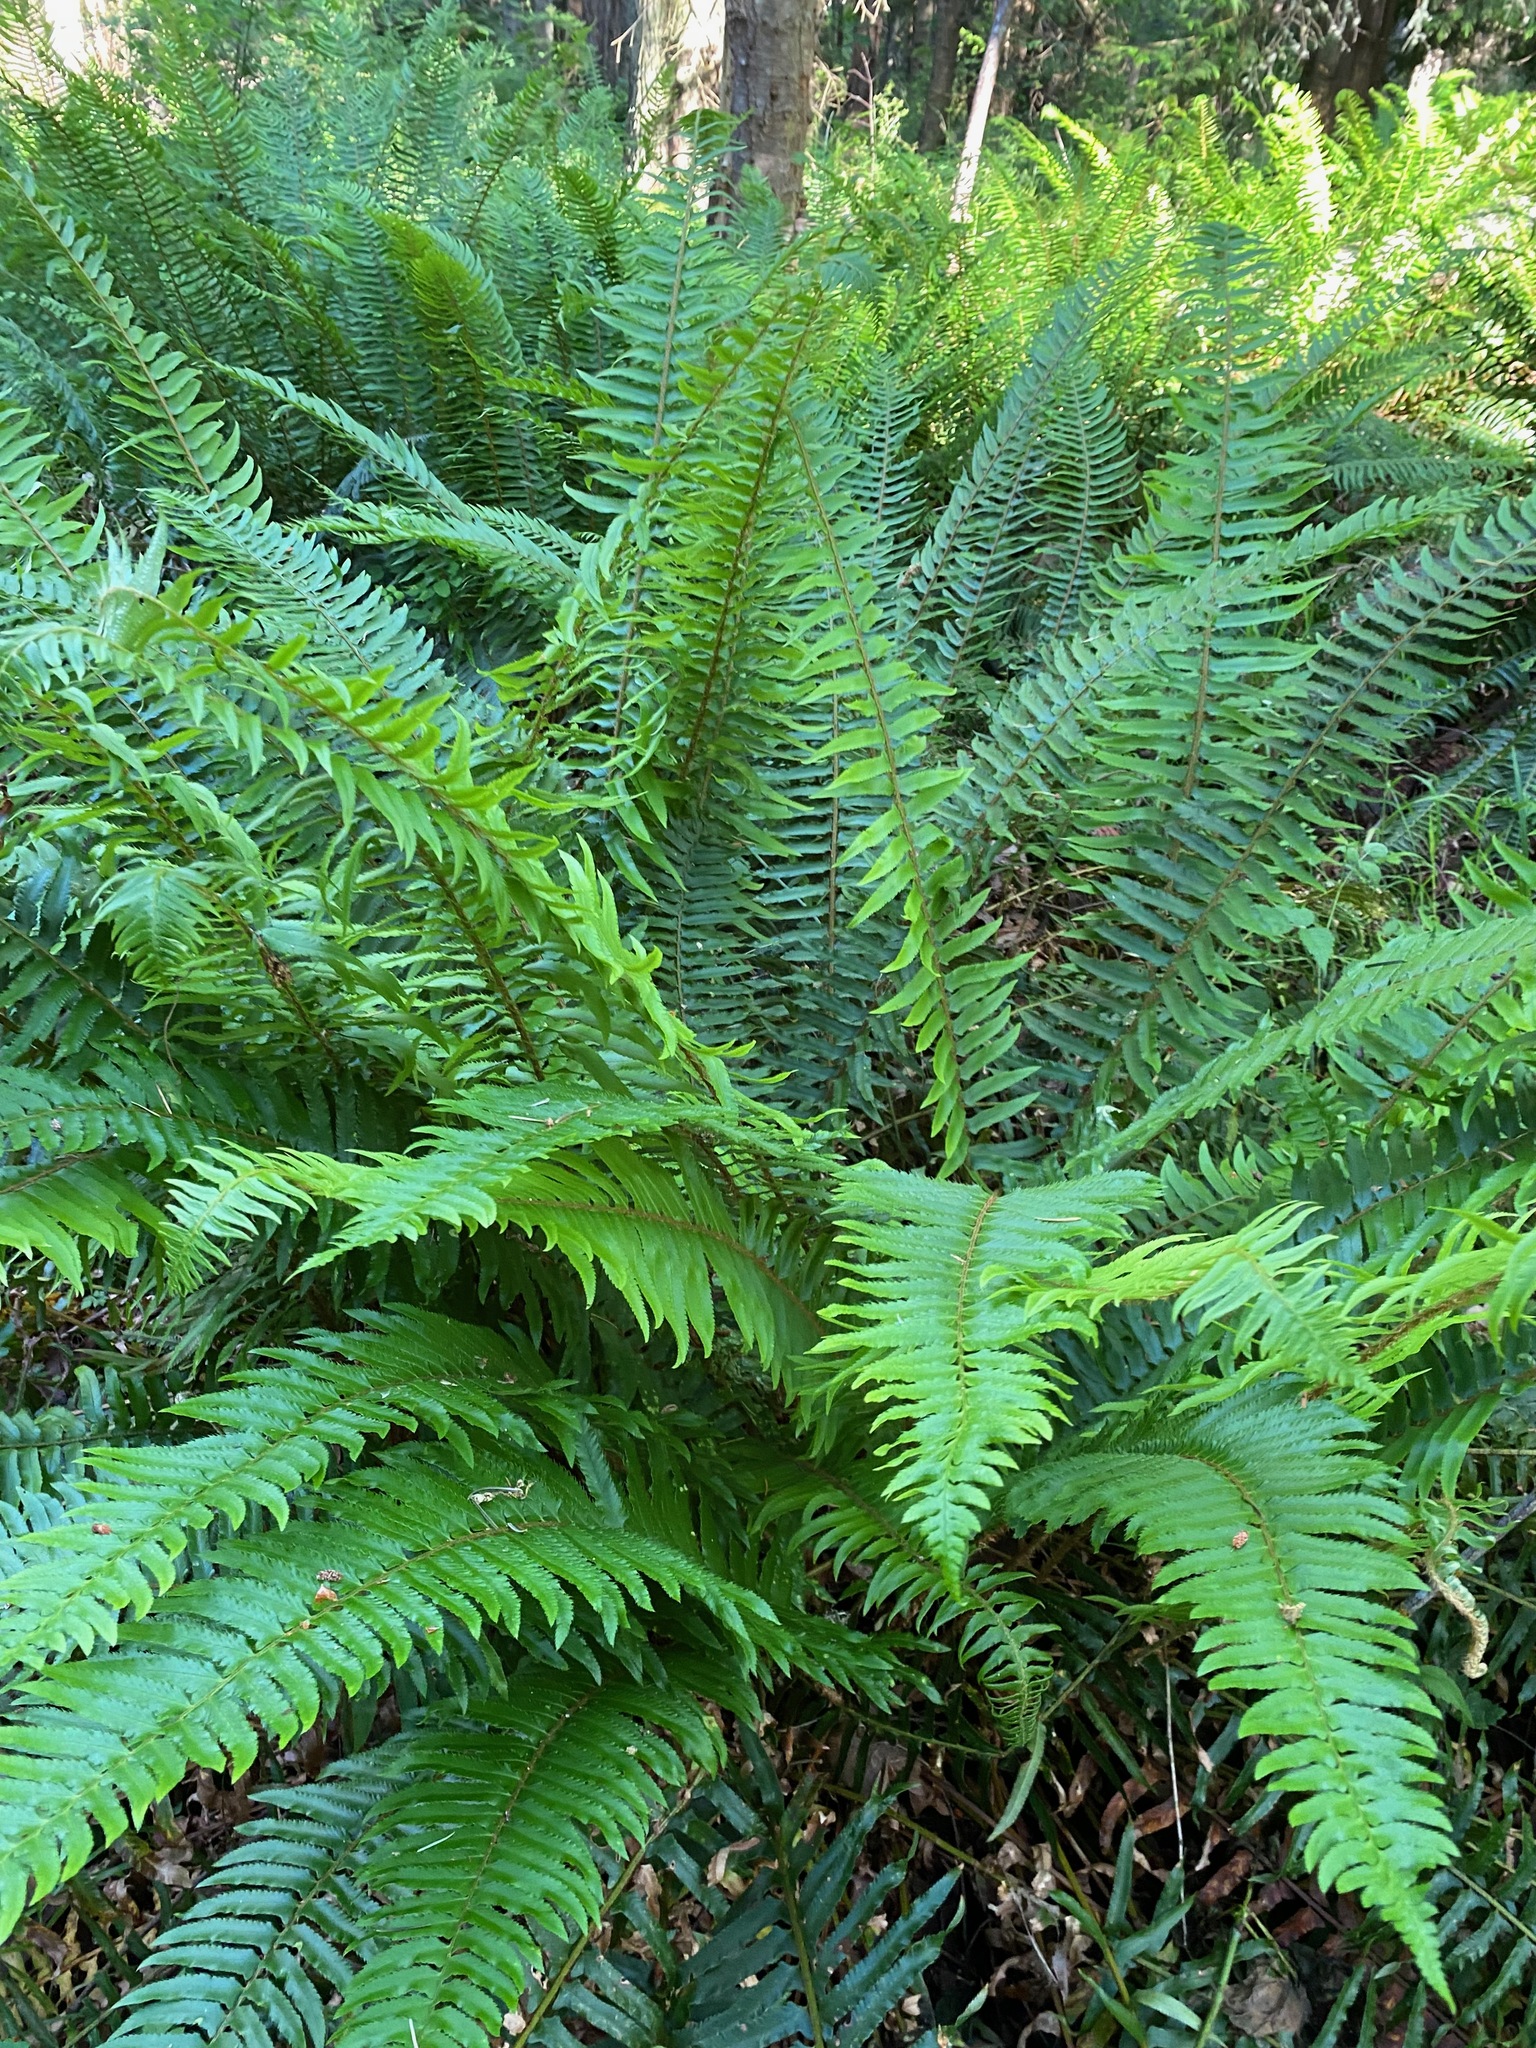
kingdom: Plantae
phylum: Tracheophyta
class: Polypodiopsida
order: Polypodiales
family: Dryopteridaceae
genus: Polystichum
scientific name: Polystichum munitum
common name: Western sword-fern
